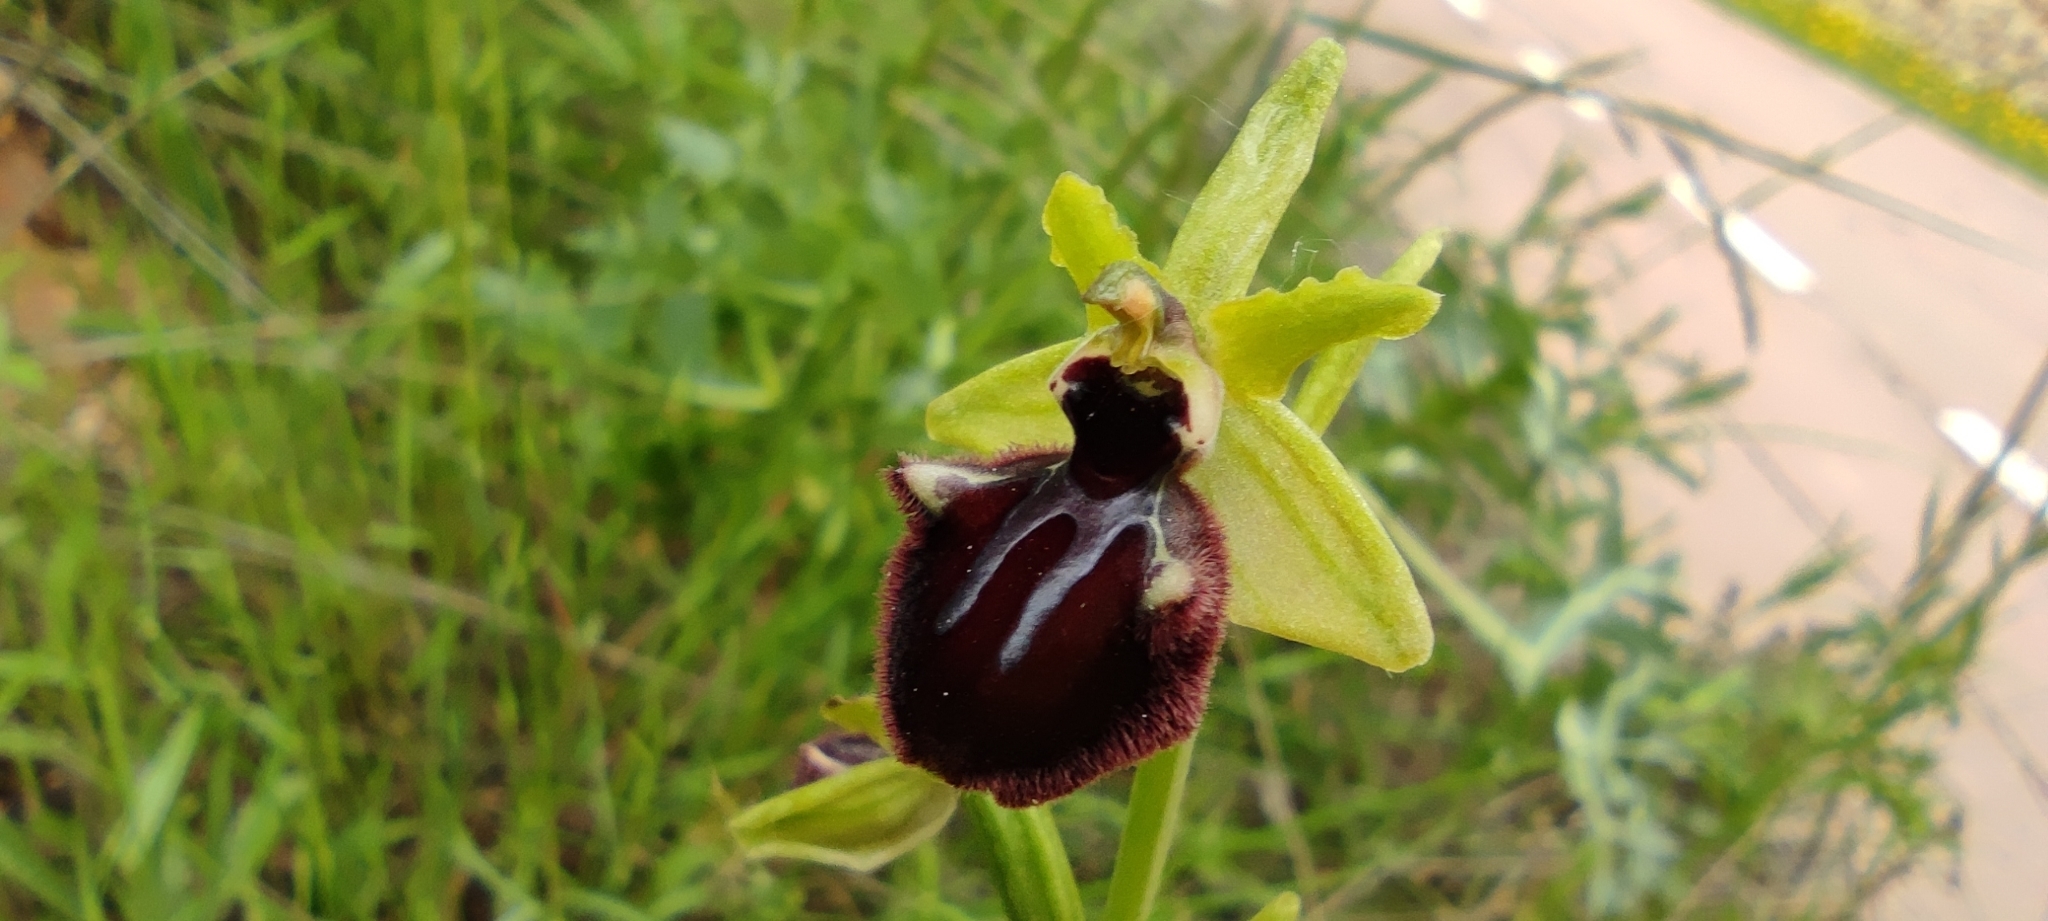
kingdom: Plantae
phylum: Tracheophyta
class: Liliopsida
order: Asparagales
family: Orchidaceae
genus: Ophrys
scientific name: Ophrys sphegodes
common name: Early spider-orchid
